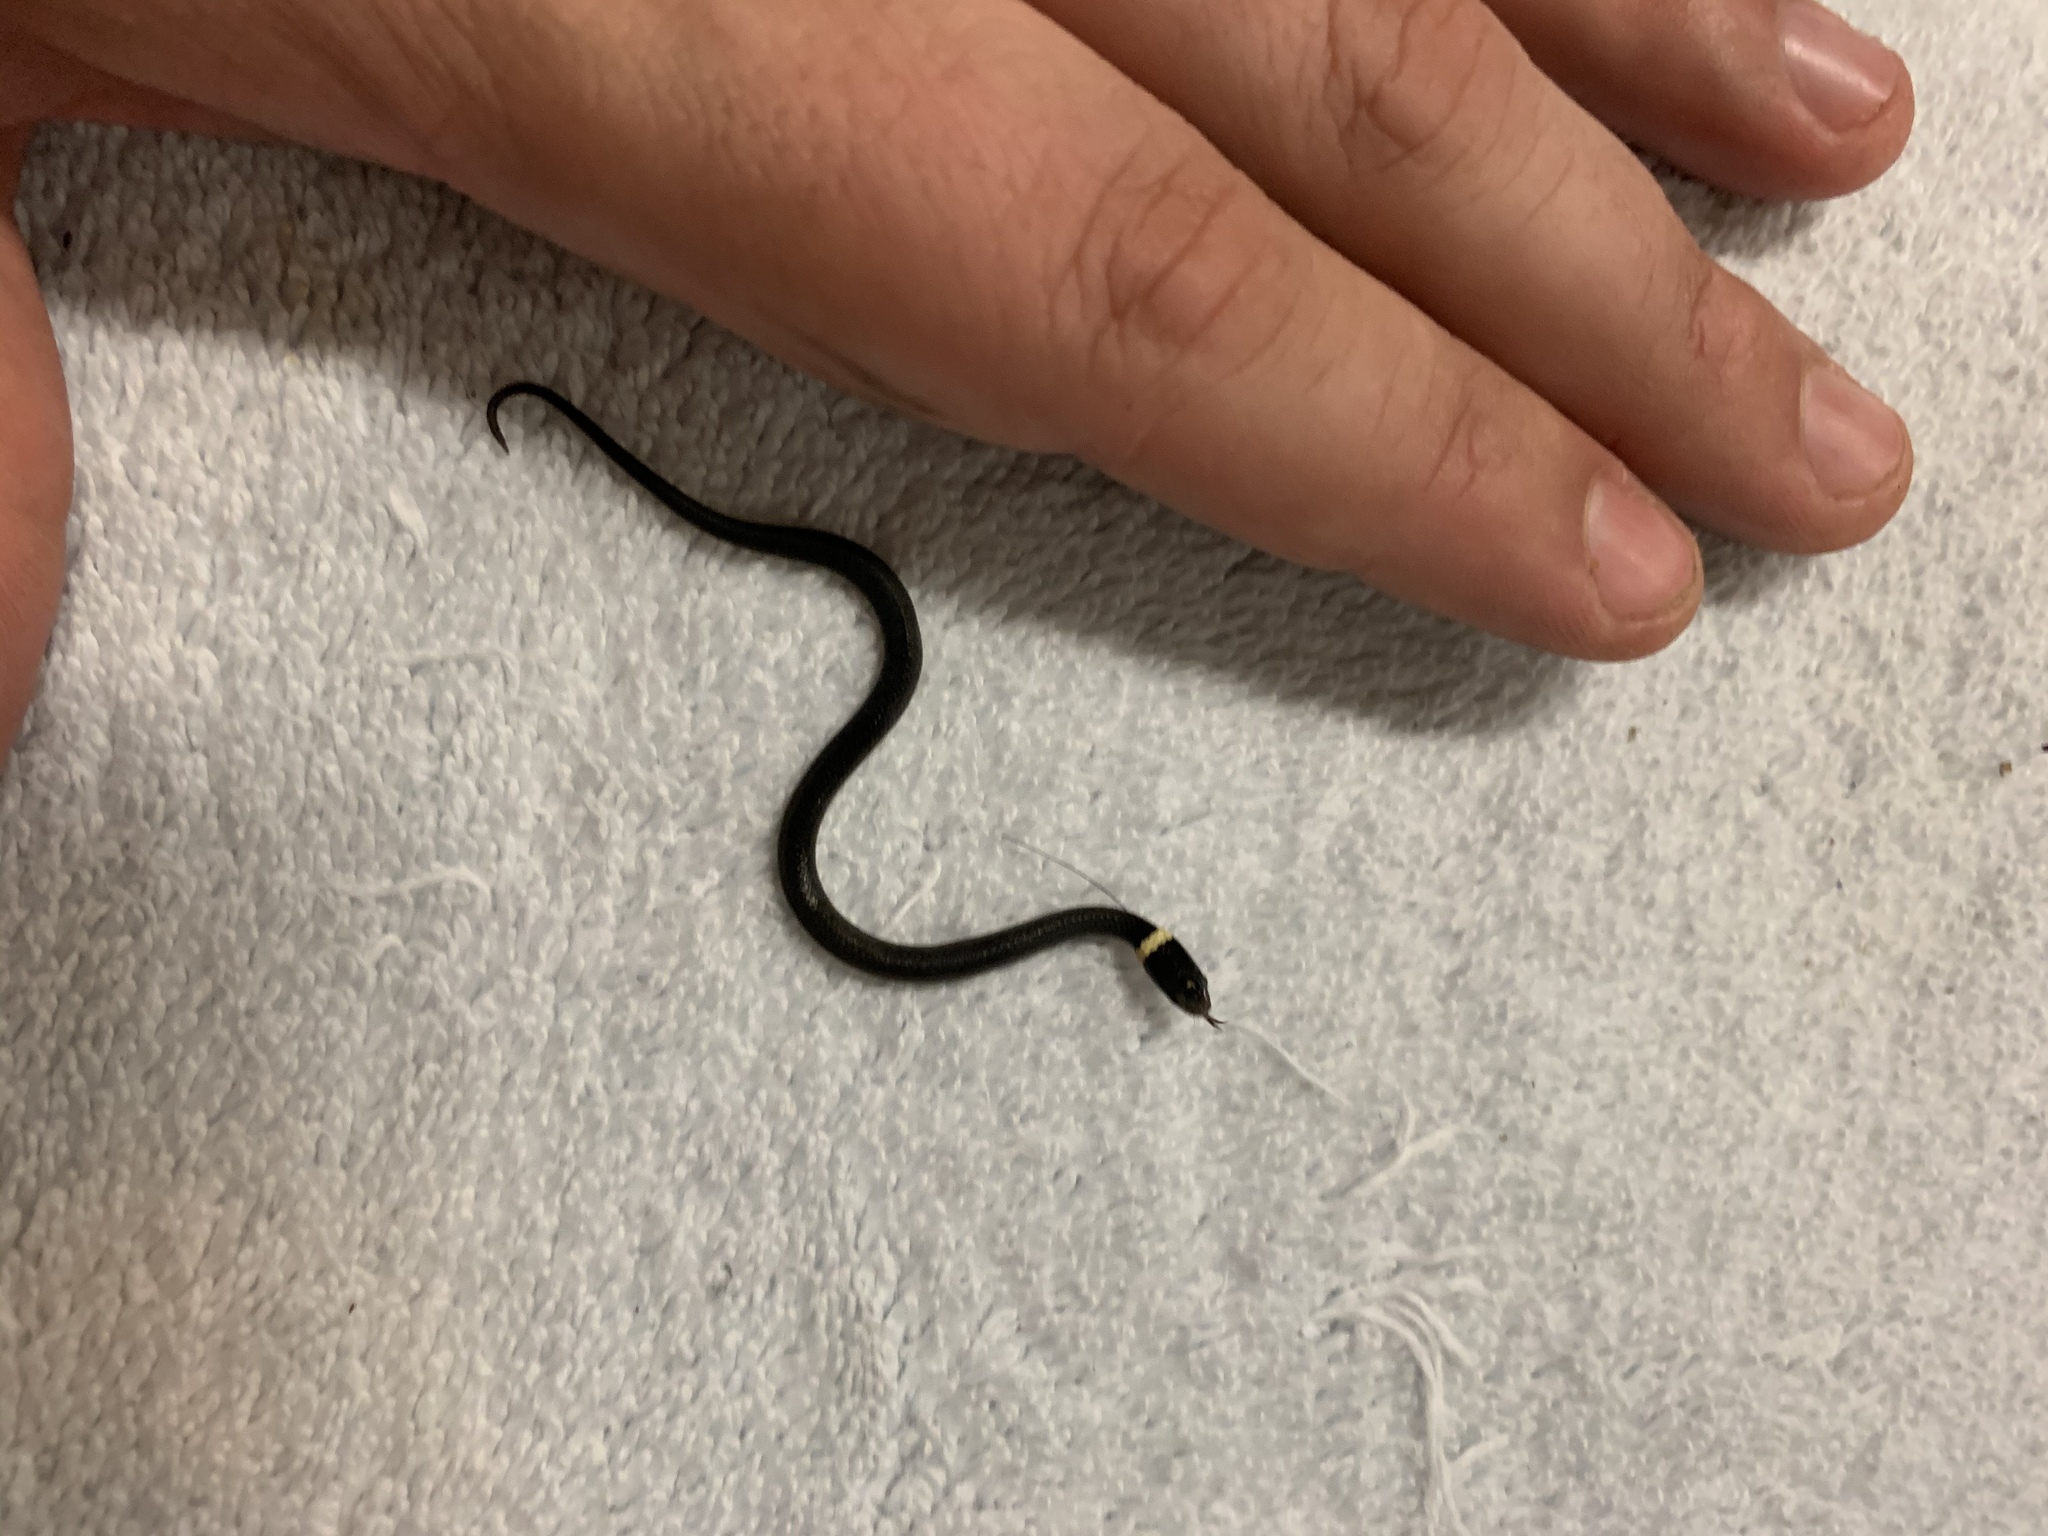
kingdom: Animalia
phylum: Chordata
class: Squamata
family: Colubridae
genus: Diadophis
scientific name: Diadophis punctatus
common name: Ringneck snake
